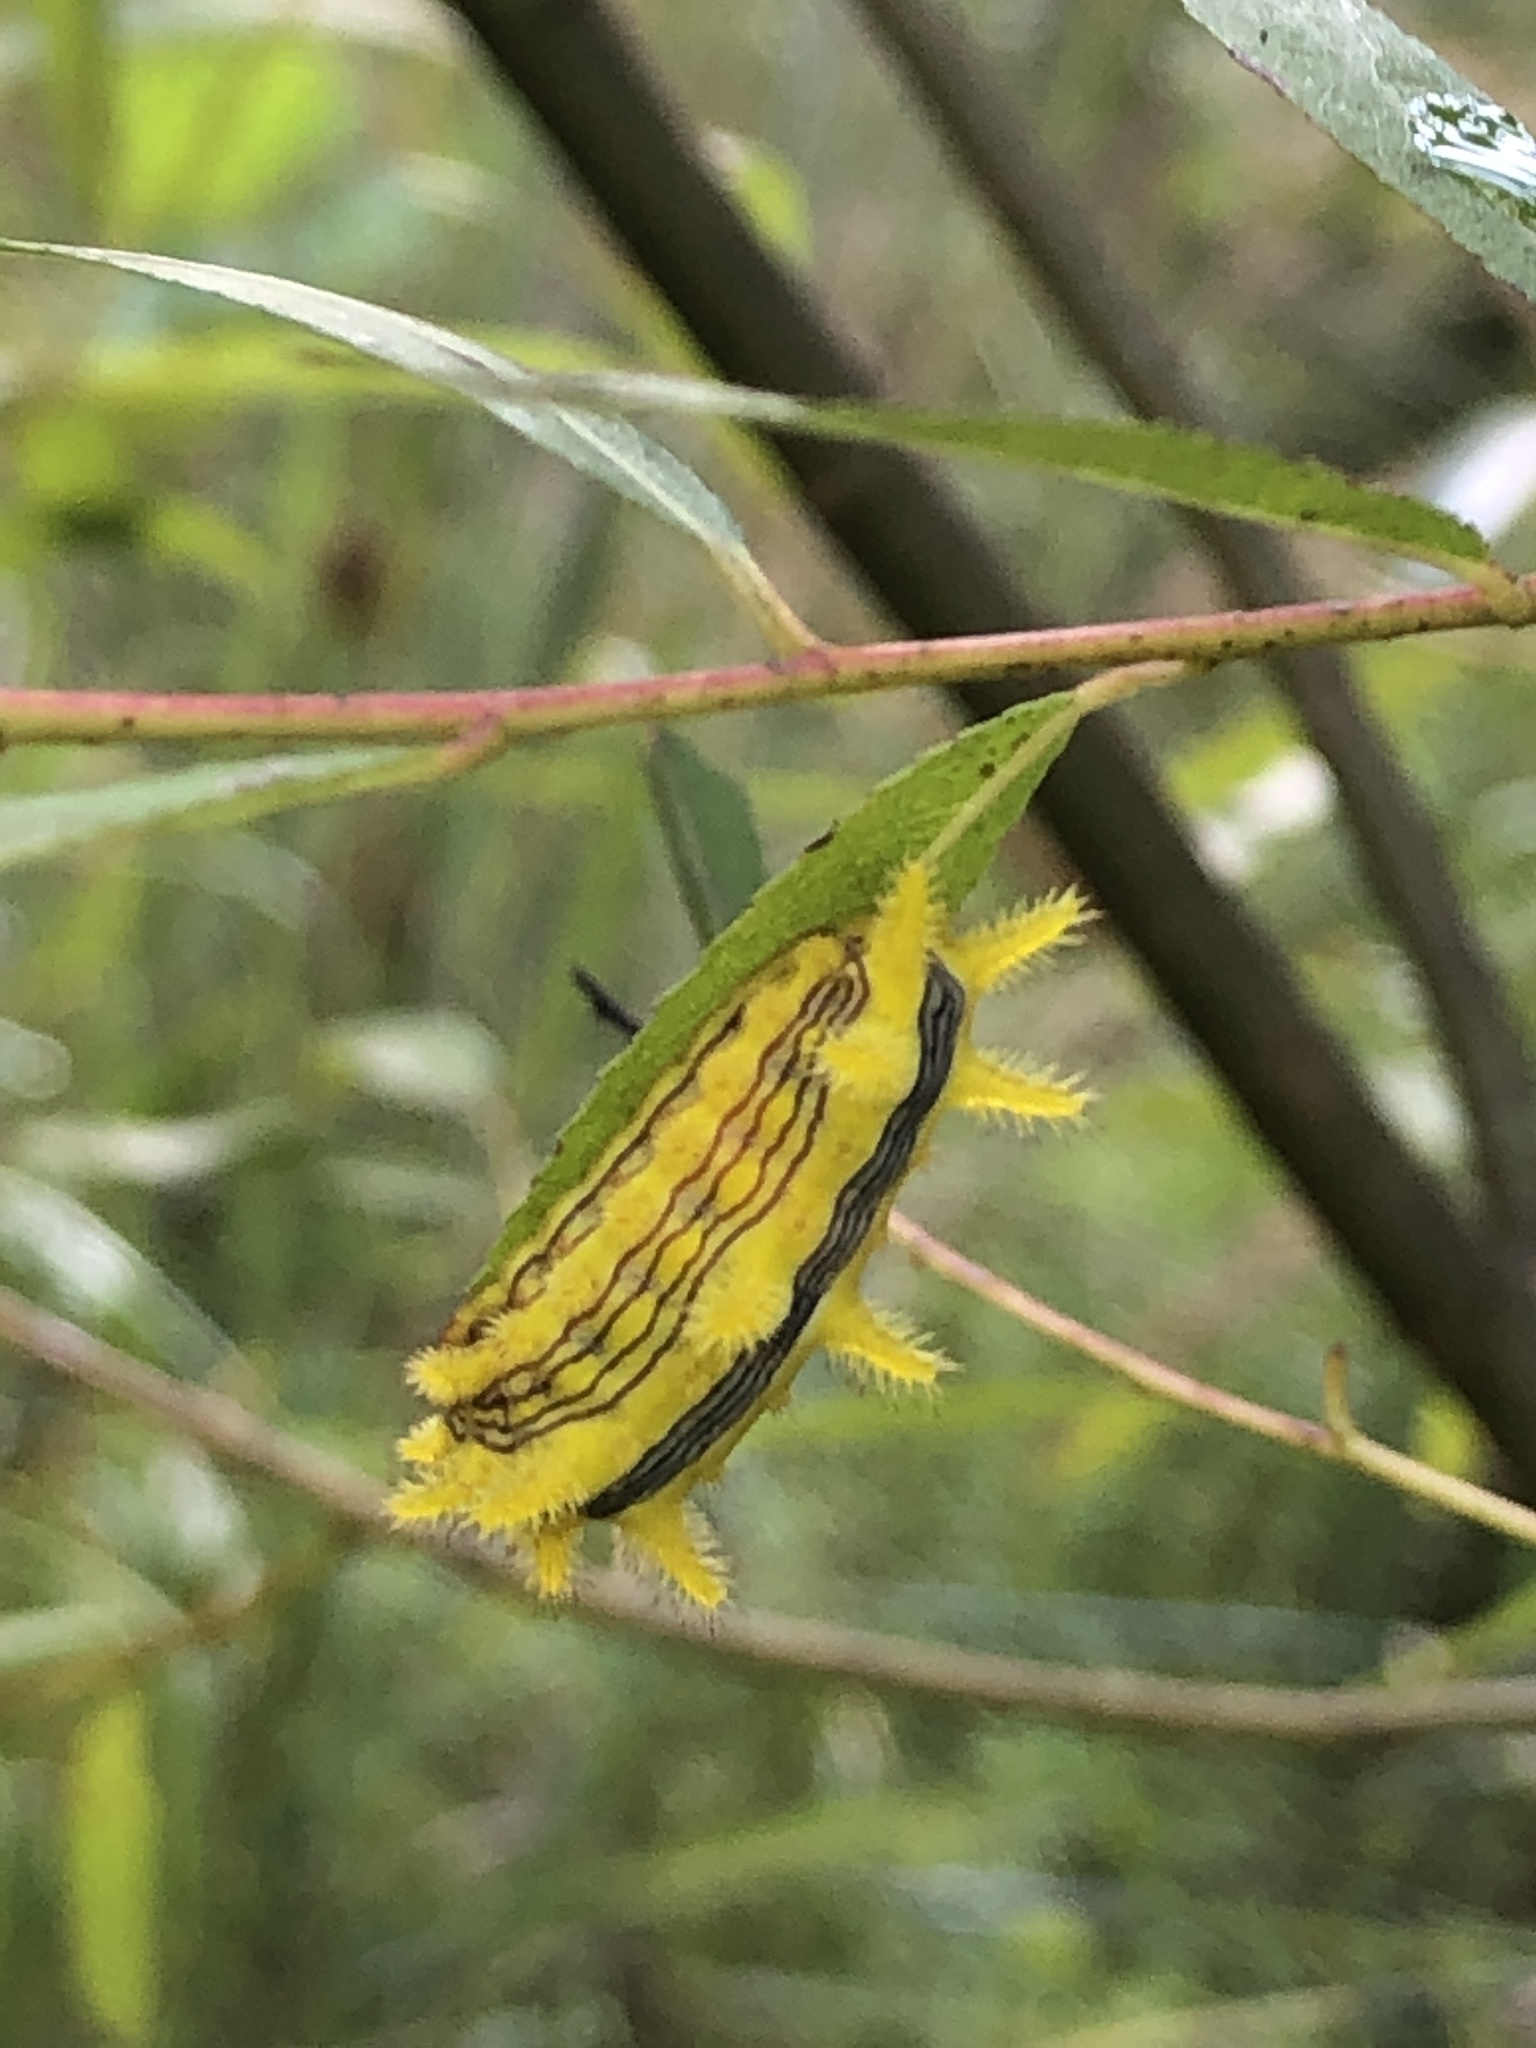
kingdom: Animalia
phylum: Arthropoda
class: Insecta
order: Lepidoptera
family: Limacodidae
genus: Parasa
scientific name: Parasa indetermina
